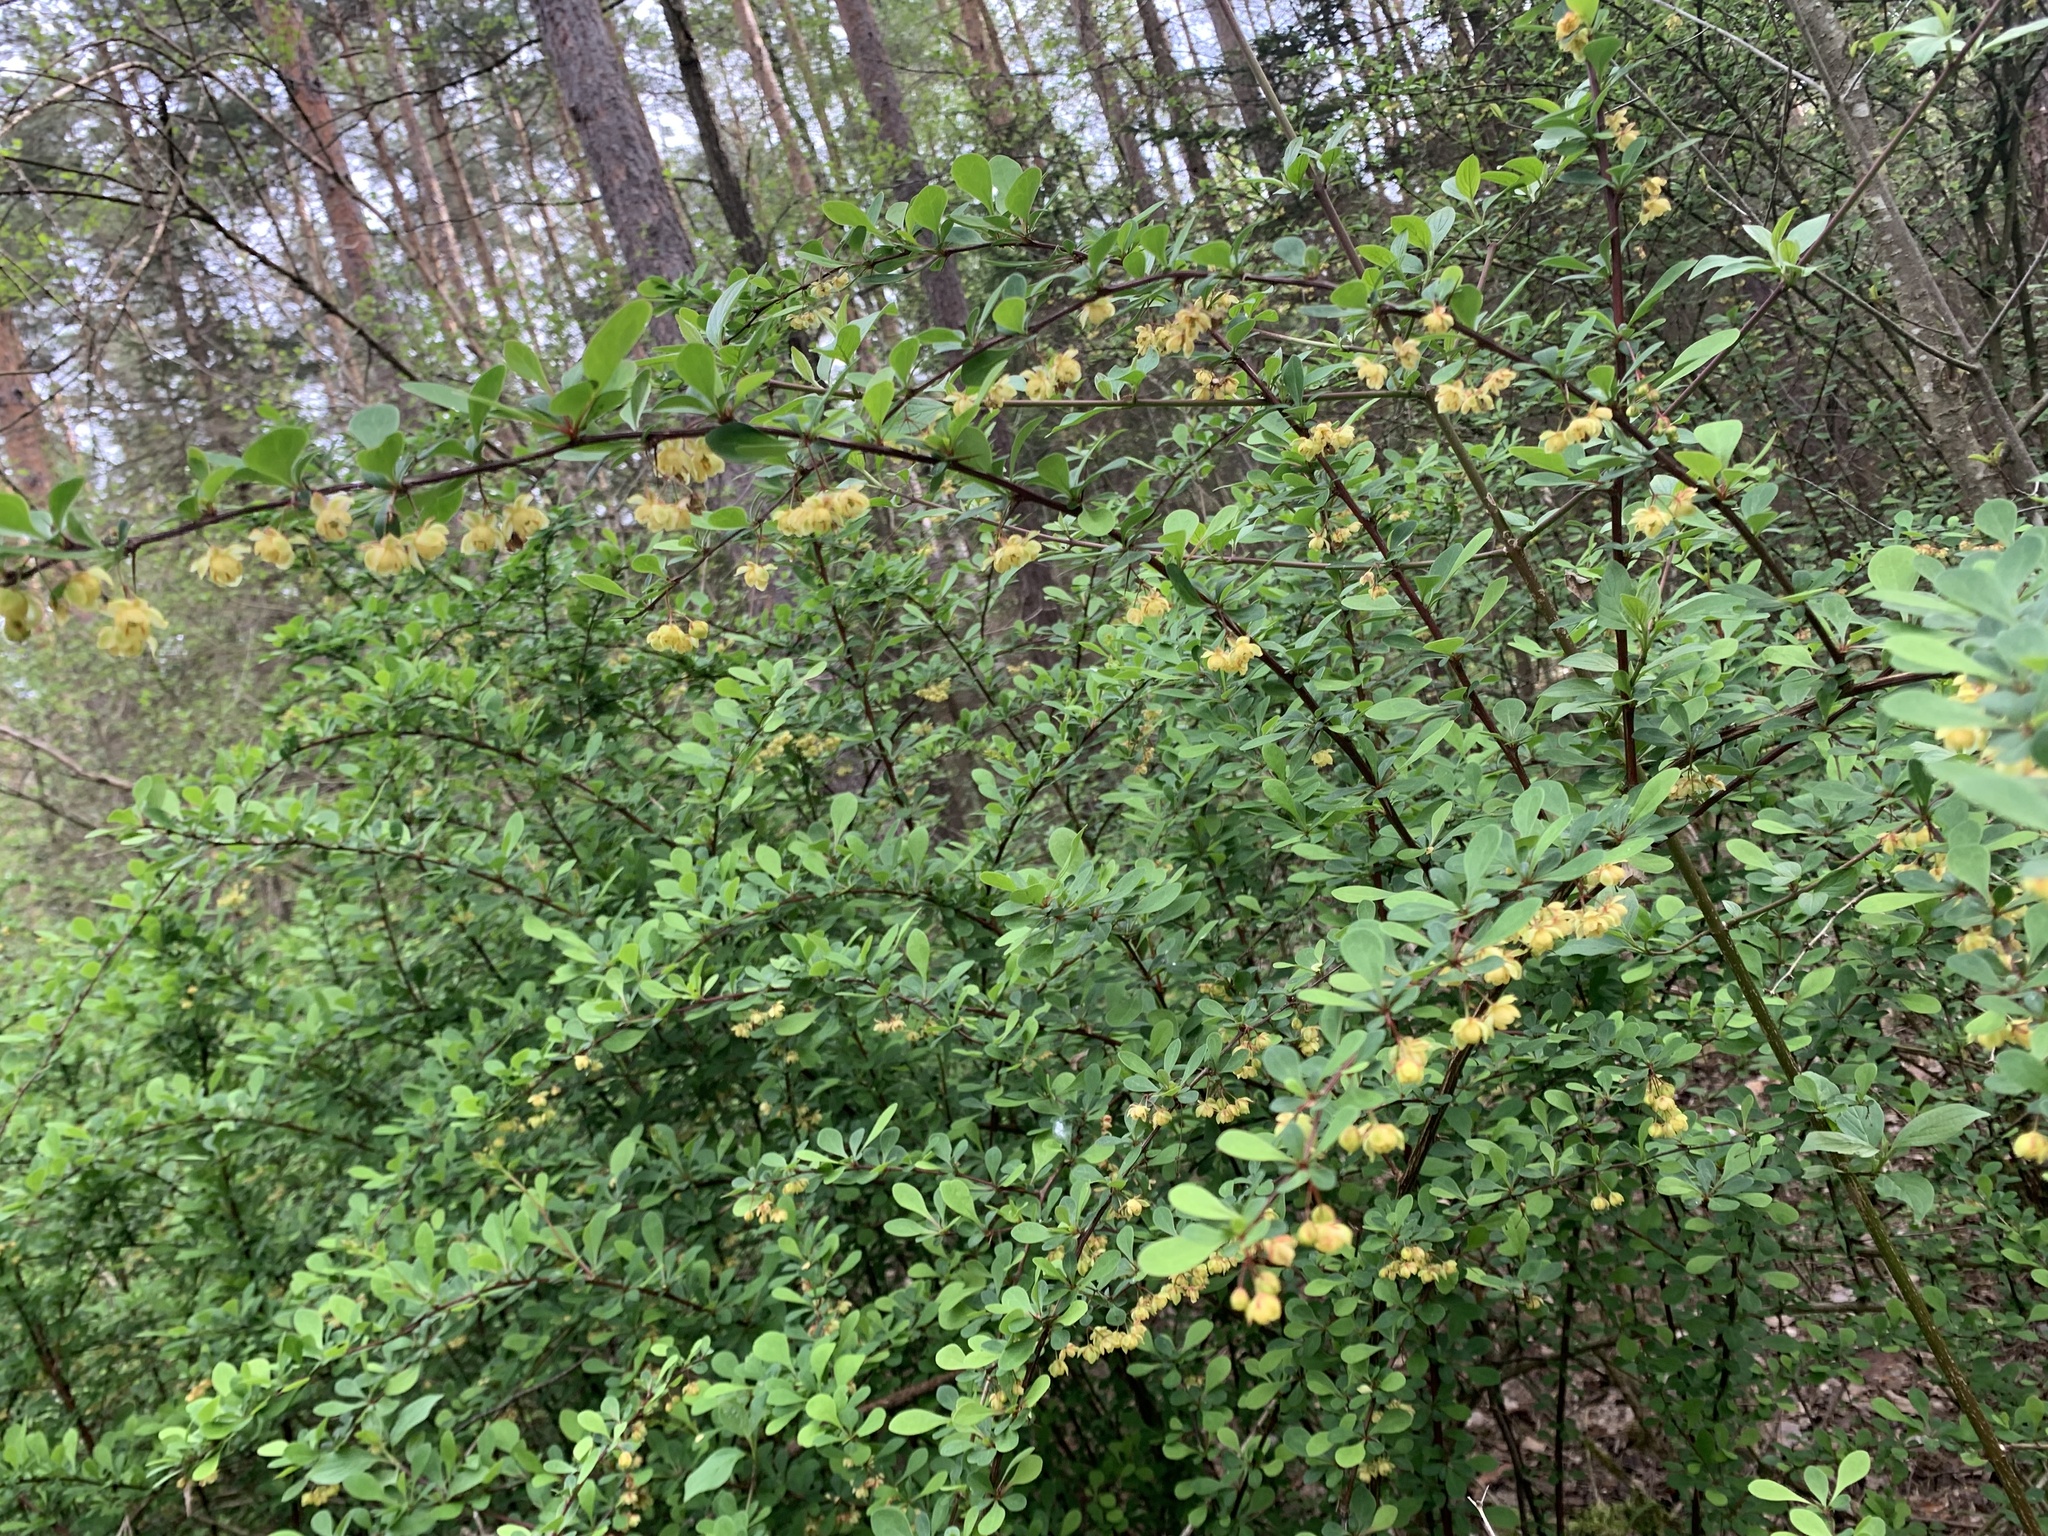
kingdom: Plantae
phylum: Tracheophyta
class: Magnoliopsida
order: Ranunculales
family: Berberidaceae
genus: Berberis
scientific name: Berberis thunbergii
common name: Japanese barberry
